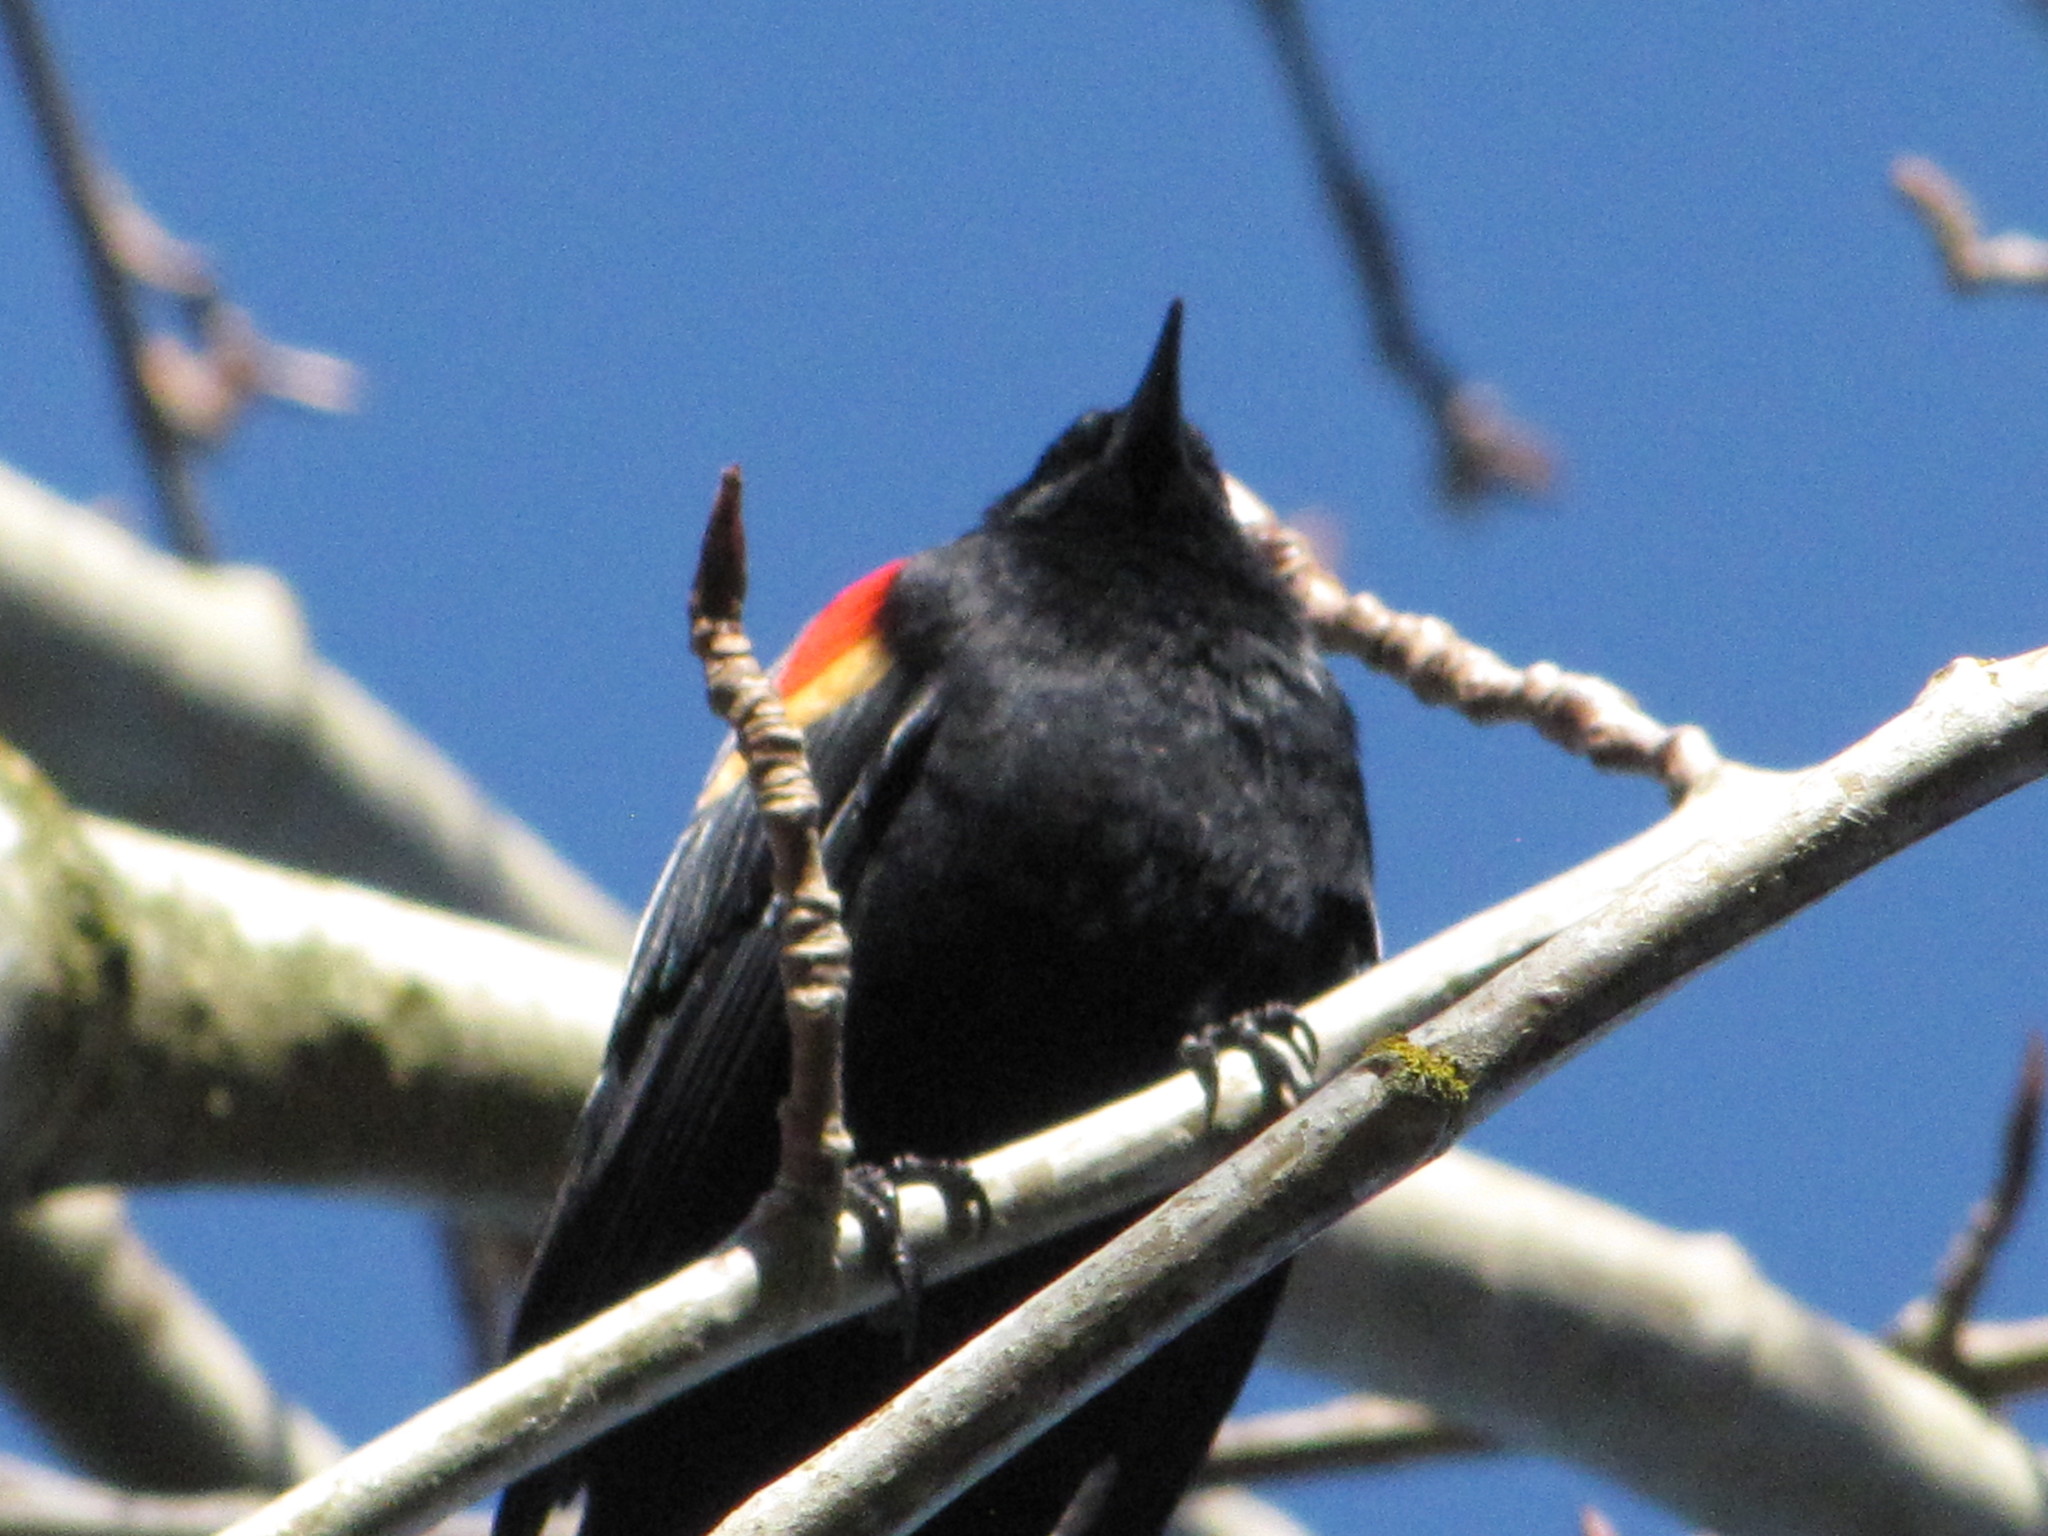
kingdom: Animalia
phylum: Chordata
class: Aves
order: Passeriformes
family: Icteridae
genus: Agelaius
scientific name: Agelaius phoeniceus
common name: Red-winged blackbird
